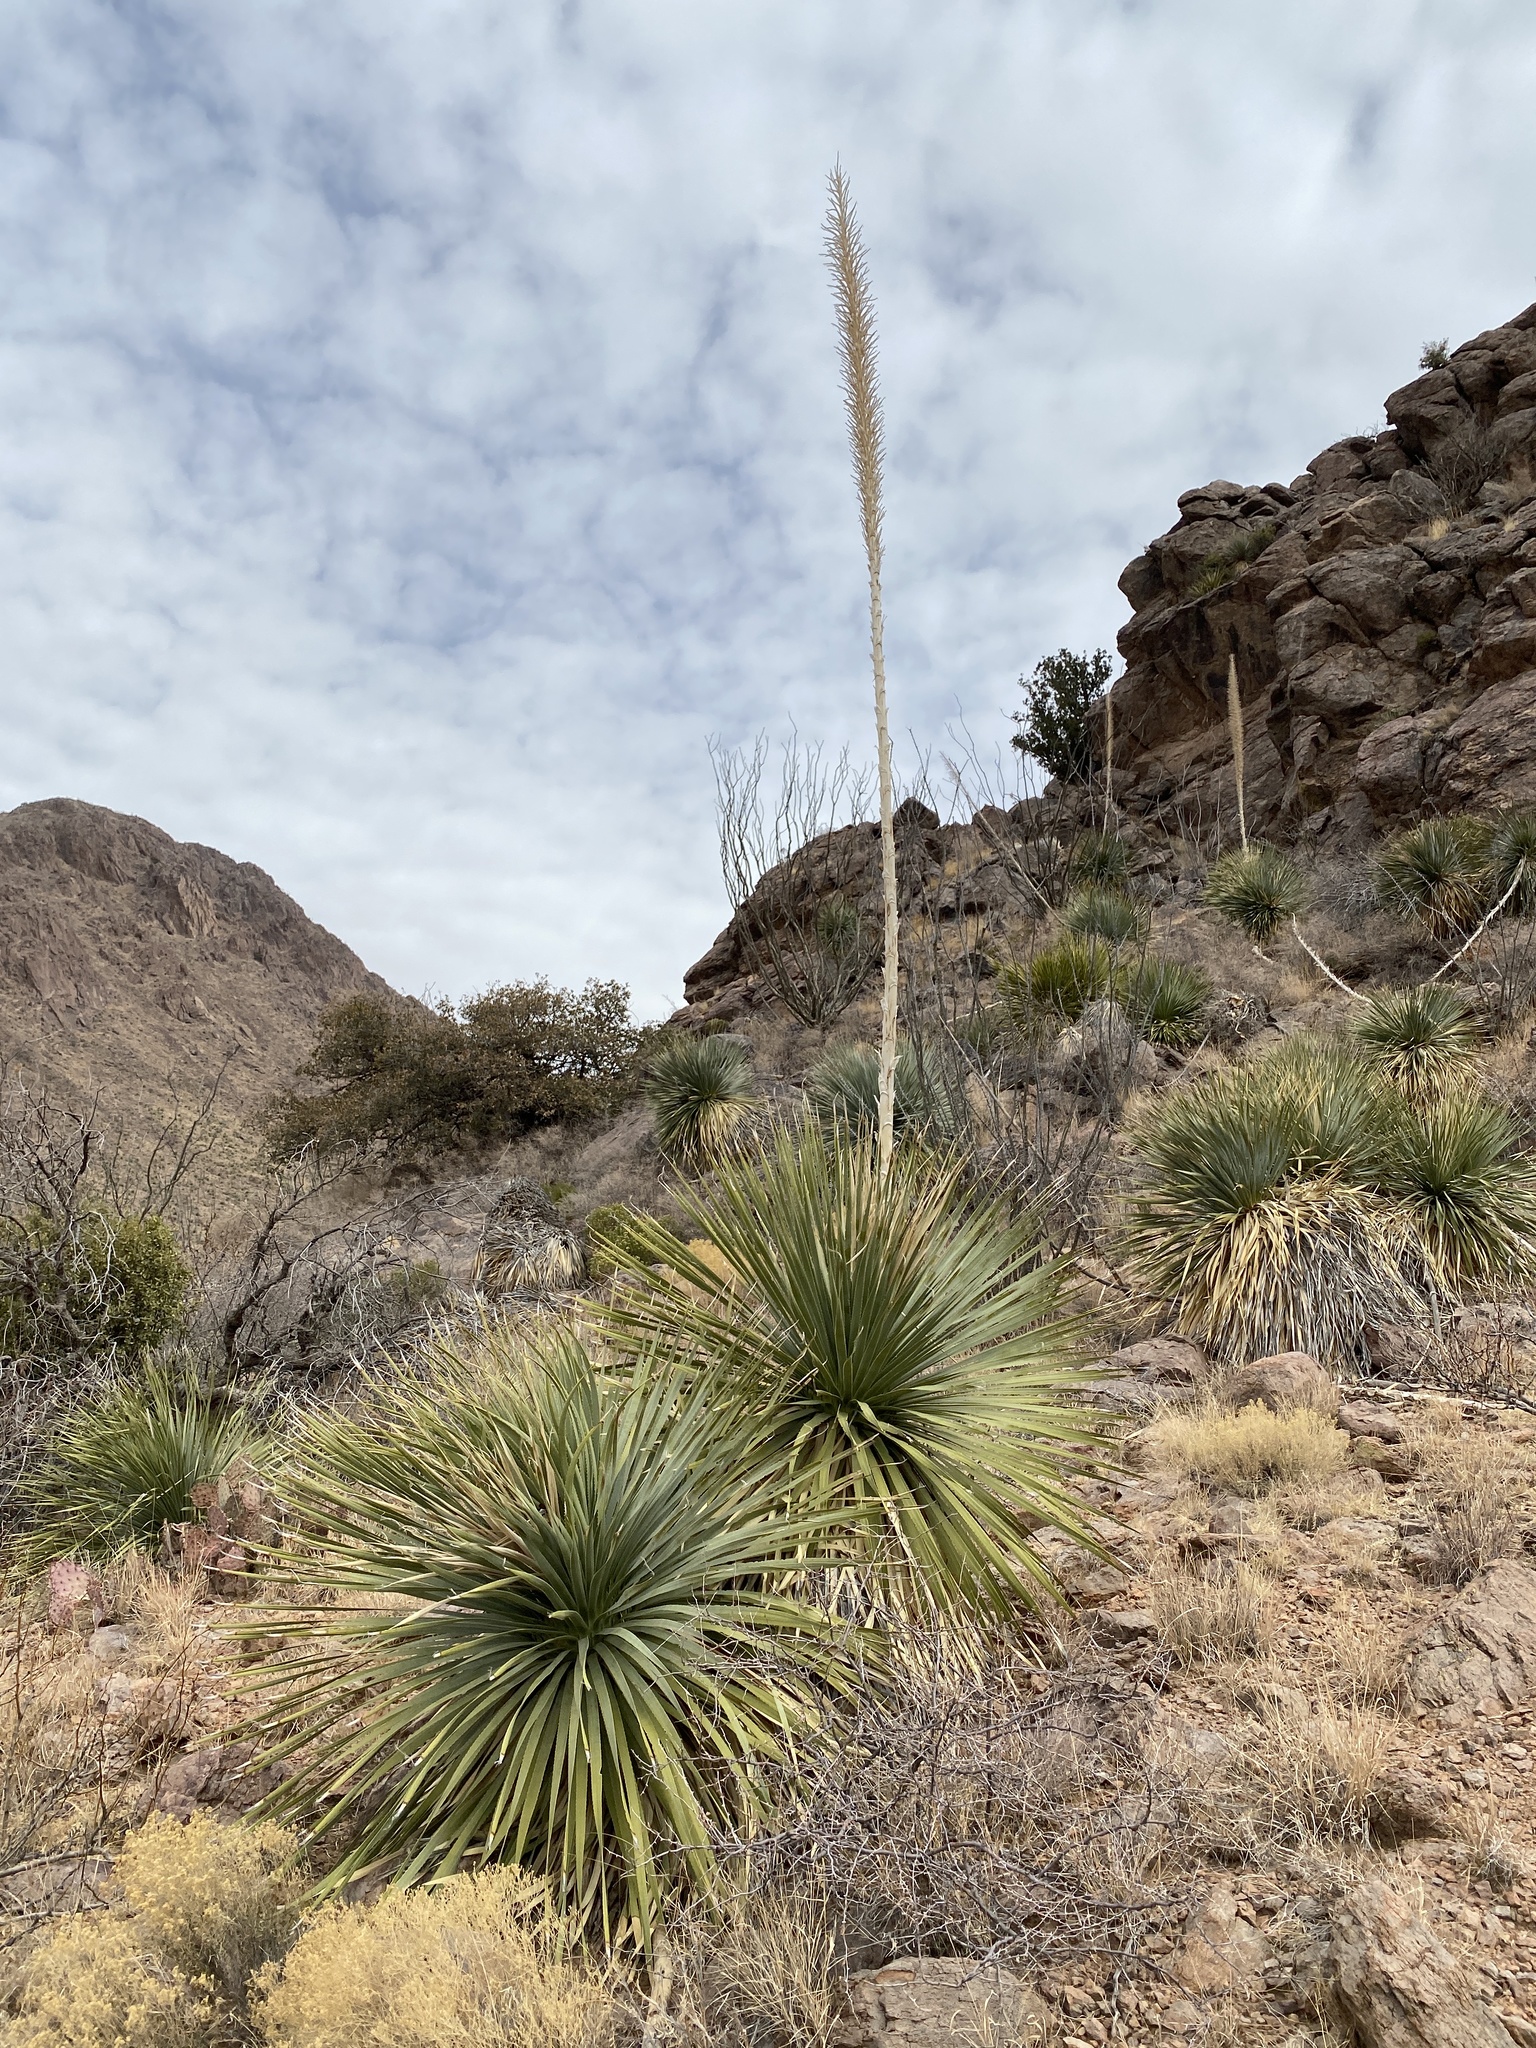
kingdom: Plantae
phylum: Tracheophyta
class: Liliopsida
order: Asparagales
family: Asparagaceae
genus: Dasylirion
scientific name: Dasylirion wheeleri
